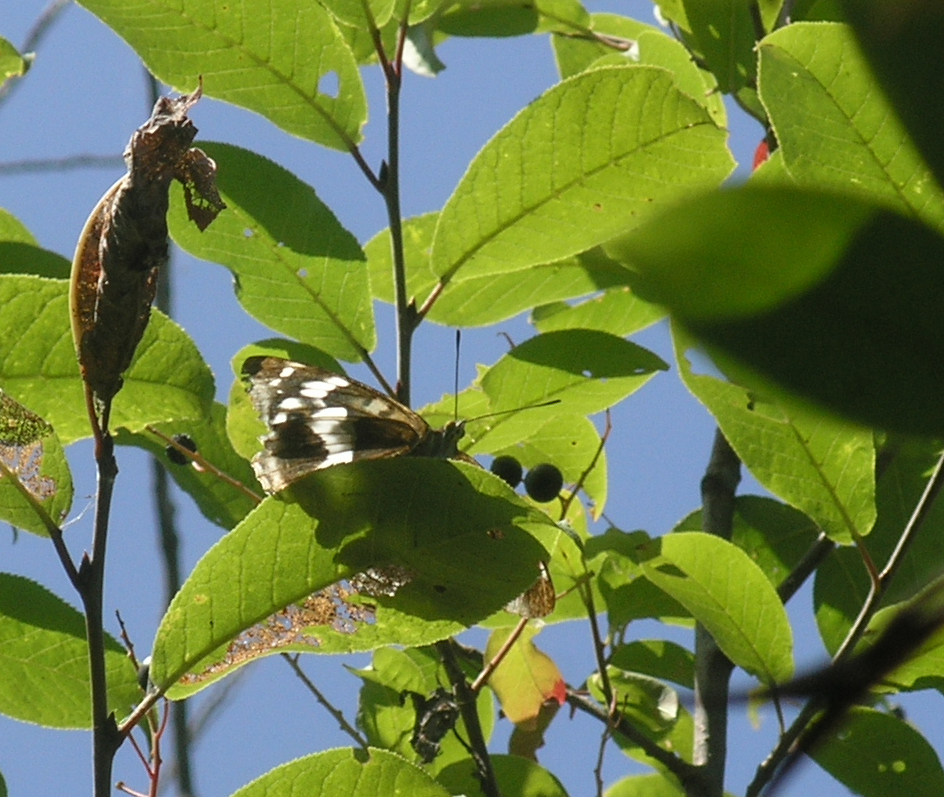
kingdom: Animalia
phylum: Arthropoda
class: Insecta
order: Lepidoptera
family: Nymphalidae
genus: Apatura
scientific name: Apatura iris
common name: Purple emperor
